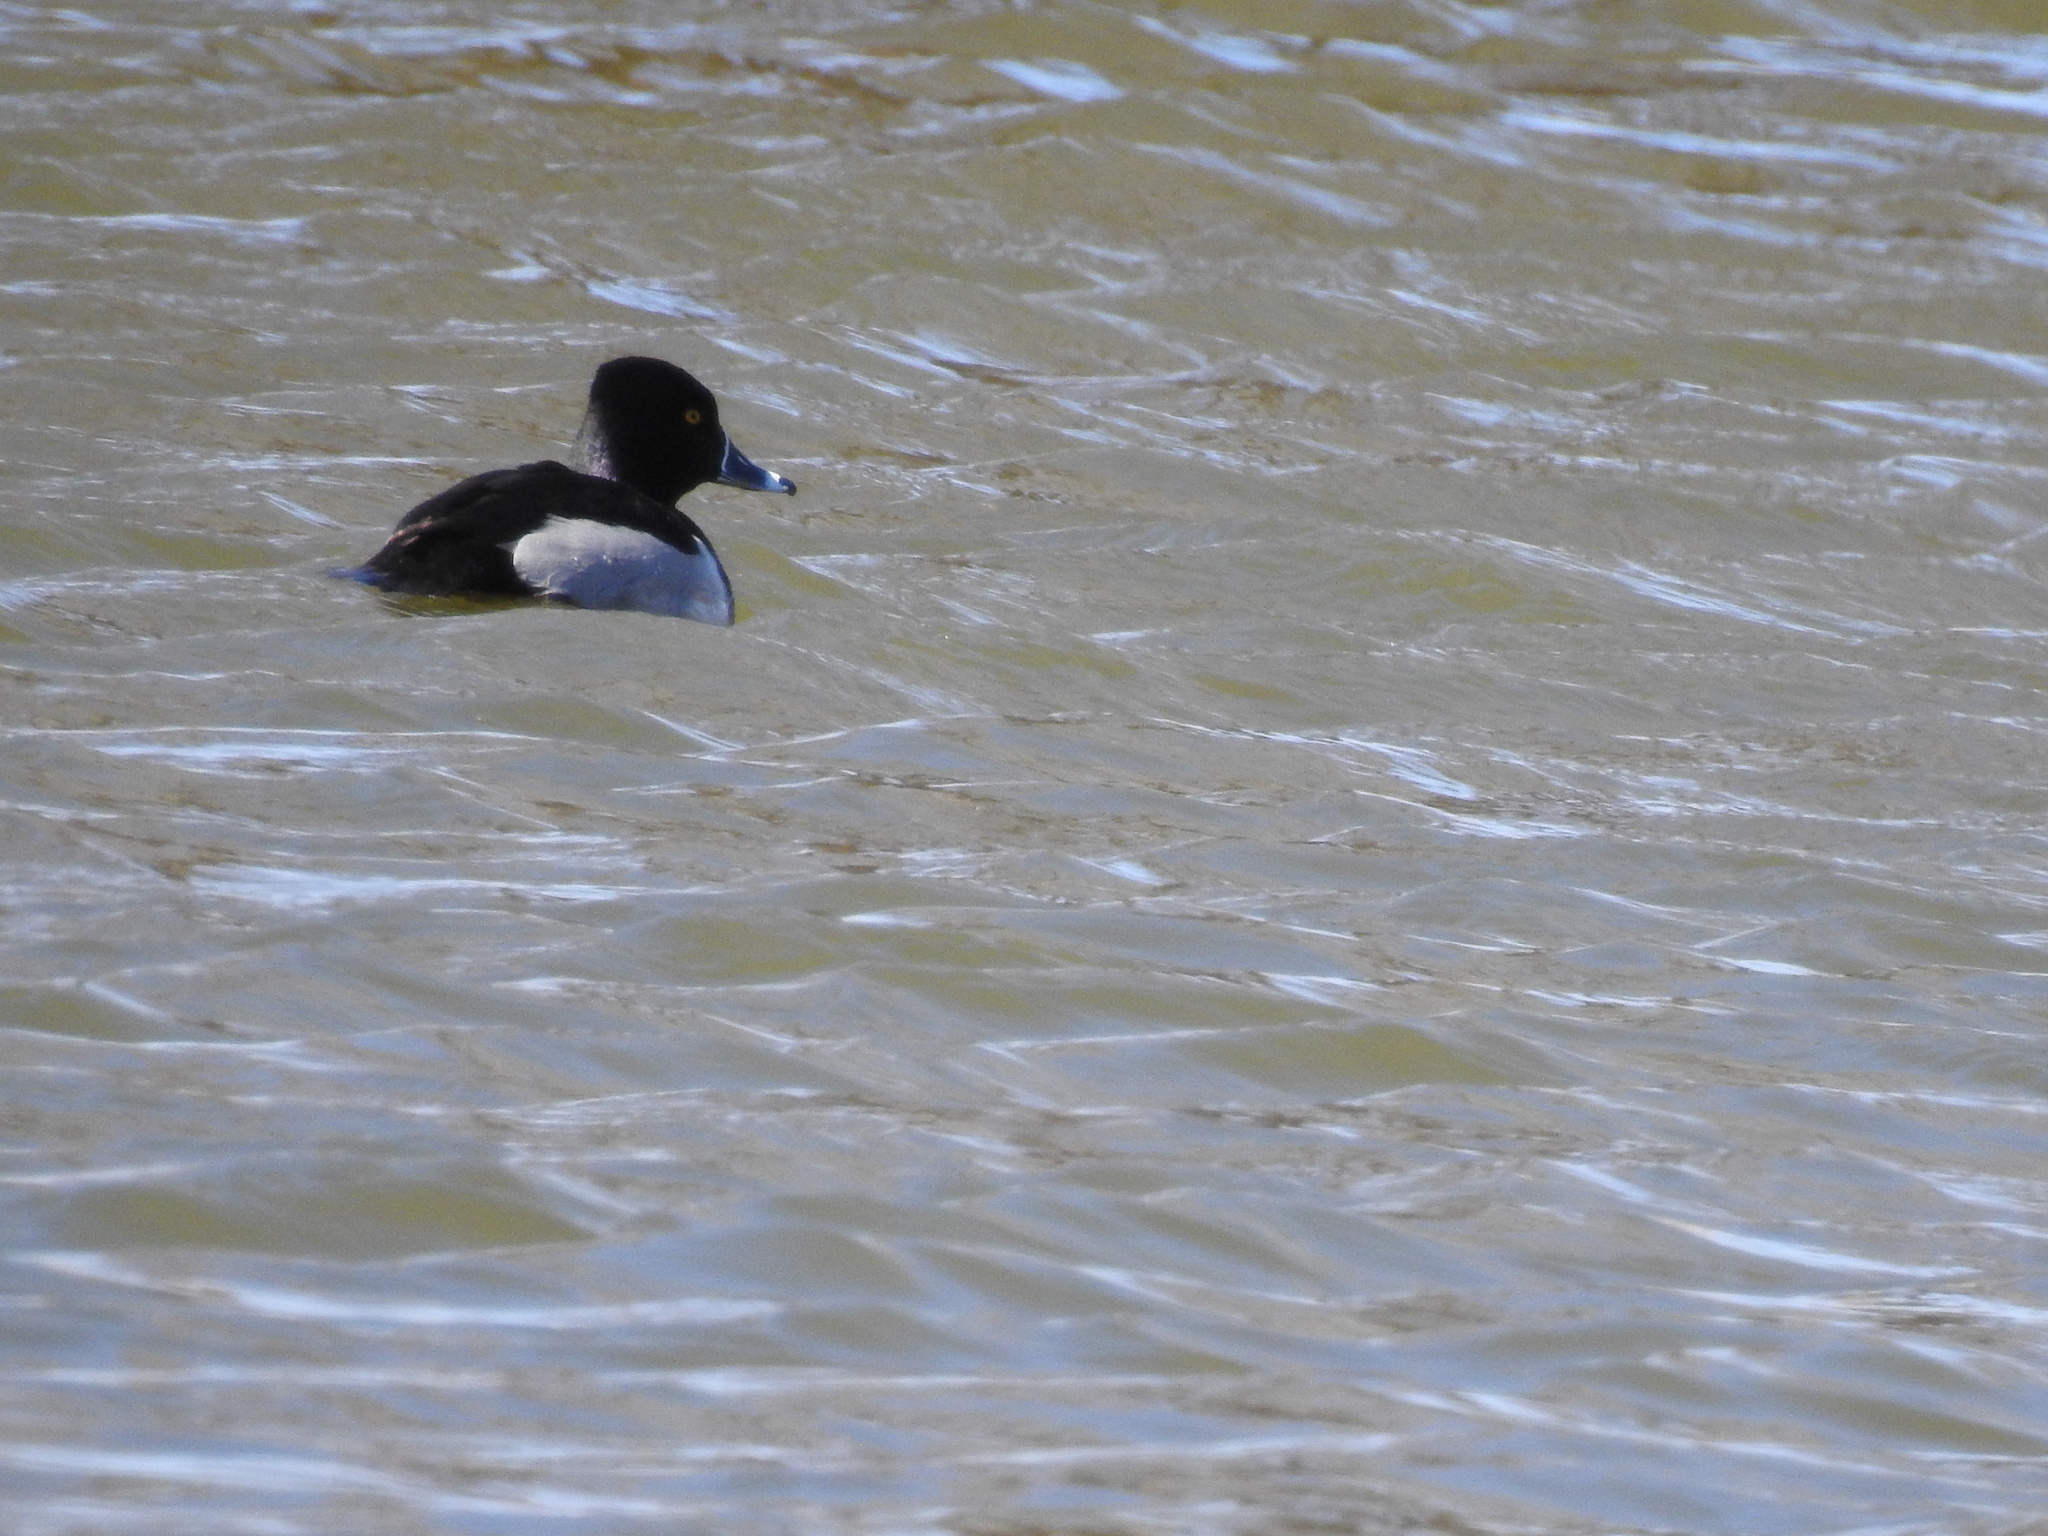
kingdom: Animalia
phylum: Chordata
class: Aves
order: Anseriformes
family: Anatidae
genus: Aythya
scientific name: Aythya collaris
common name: Ring-necked duck
